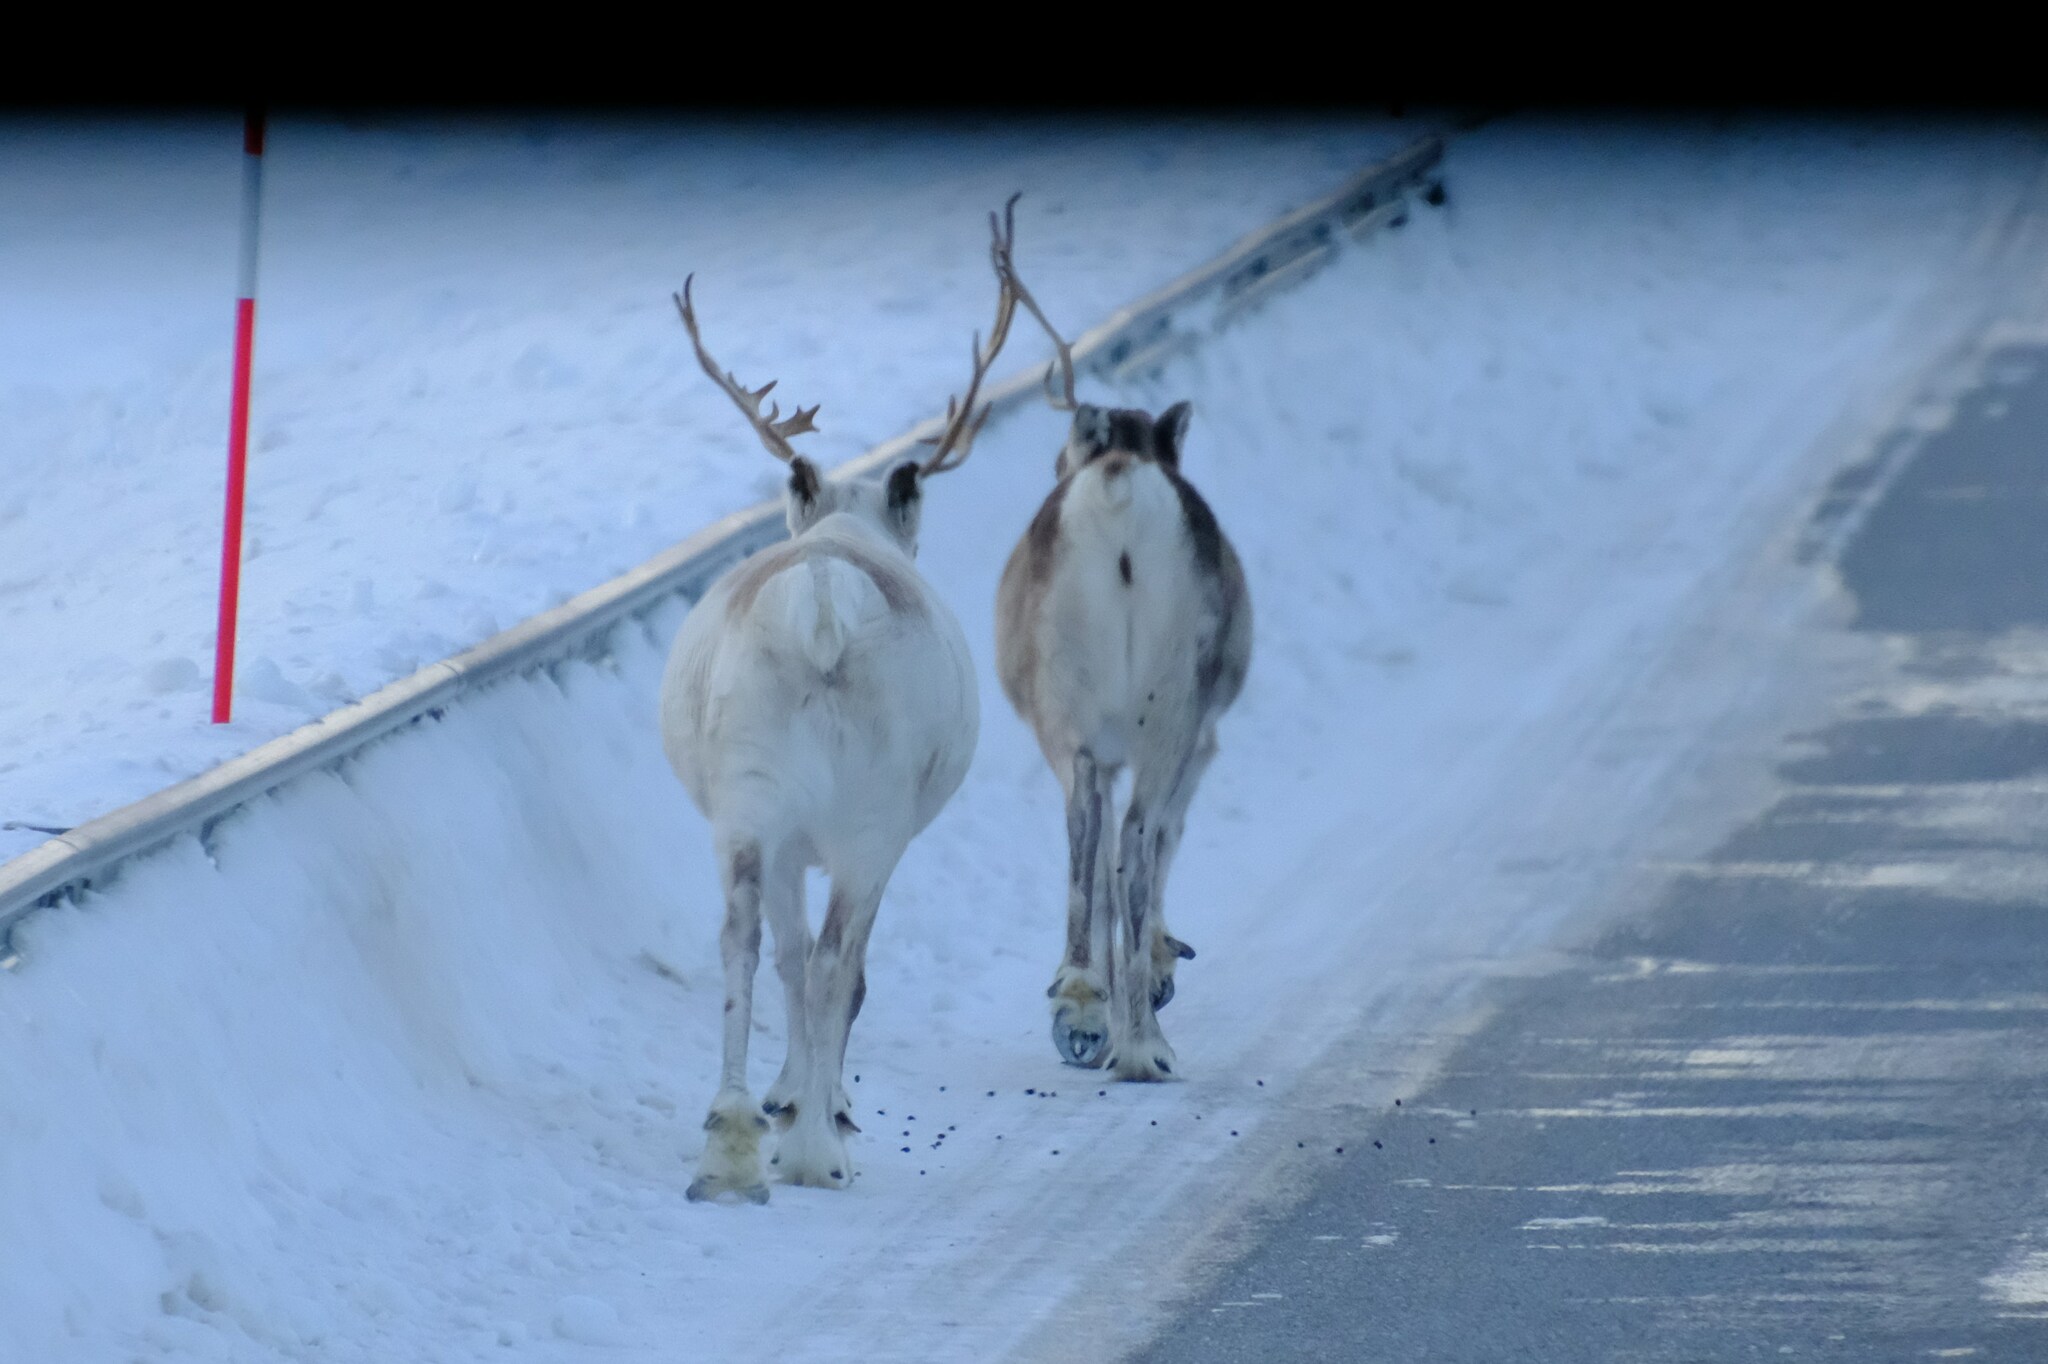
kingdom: Animalia
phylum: Chordata
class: Mammalia
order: Artiodactyla
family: Cervidae
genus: Rangifer
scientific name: Rangifer tarandus
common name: Reindeer
